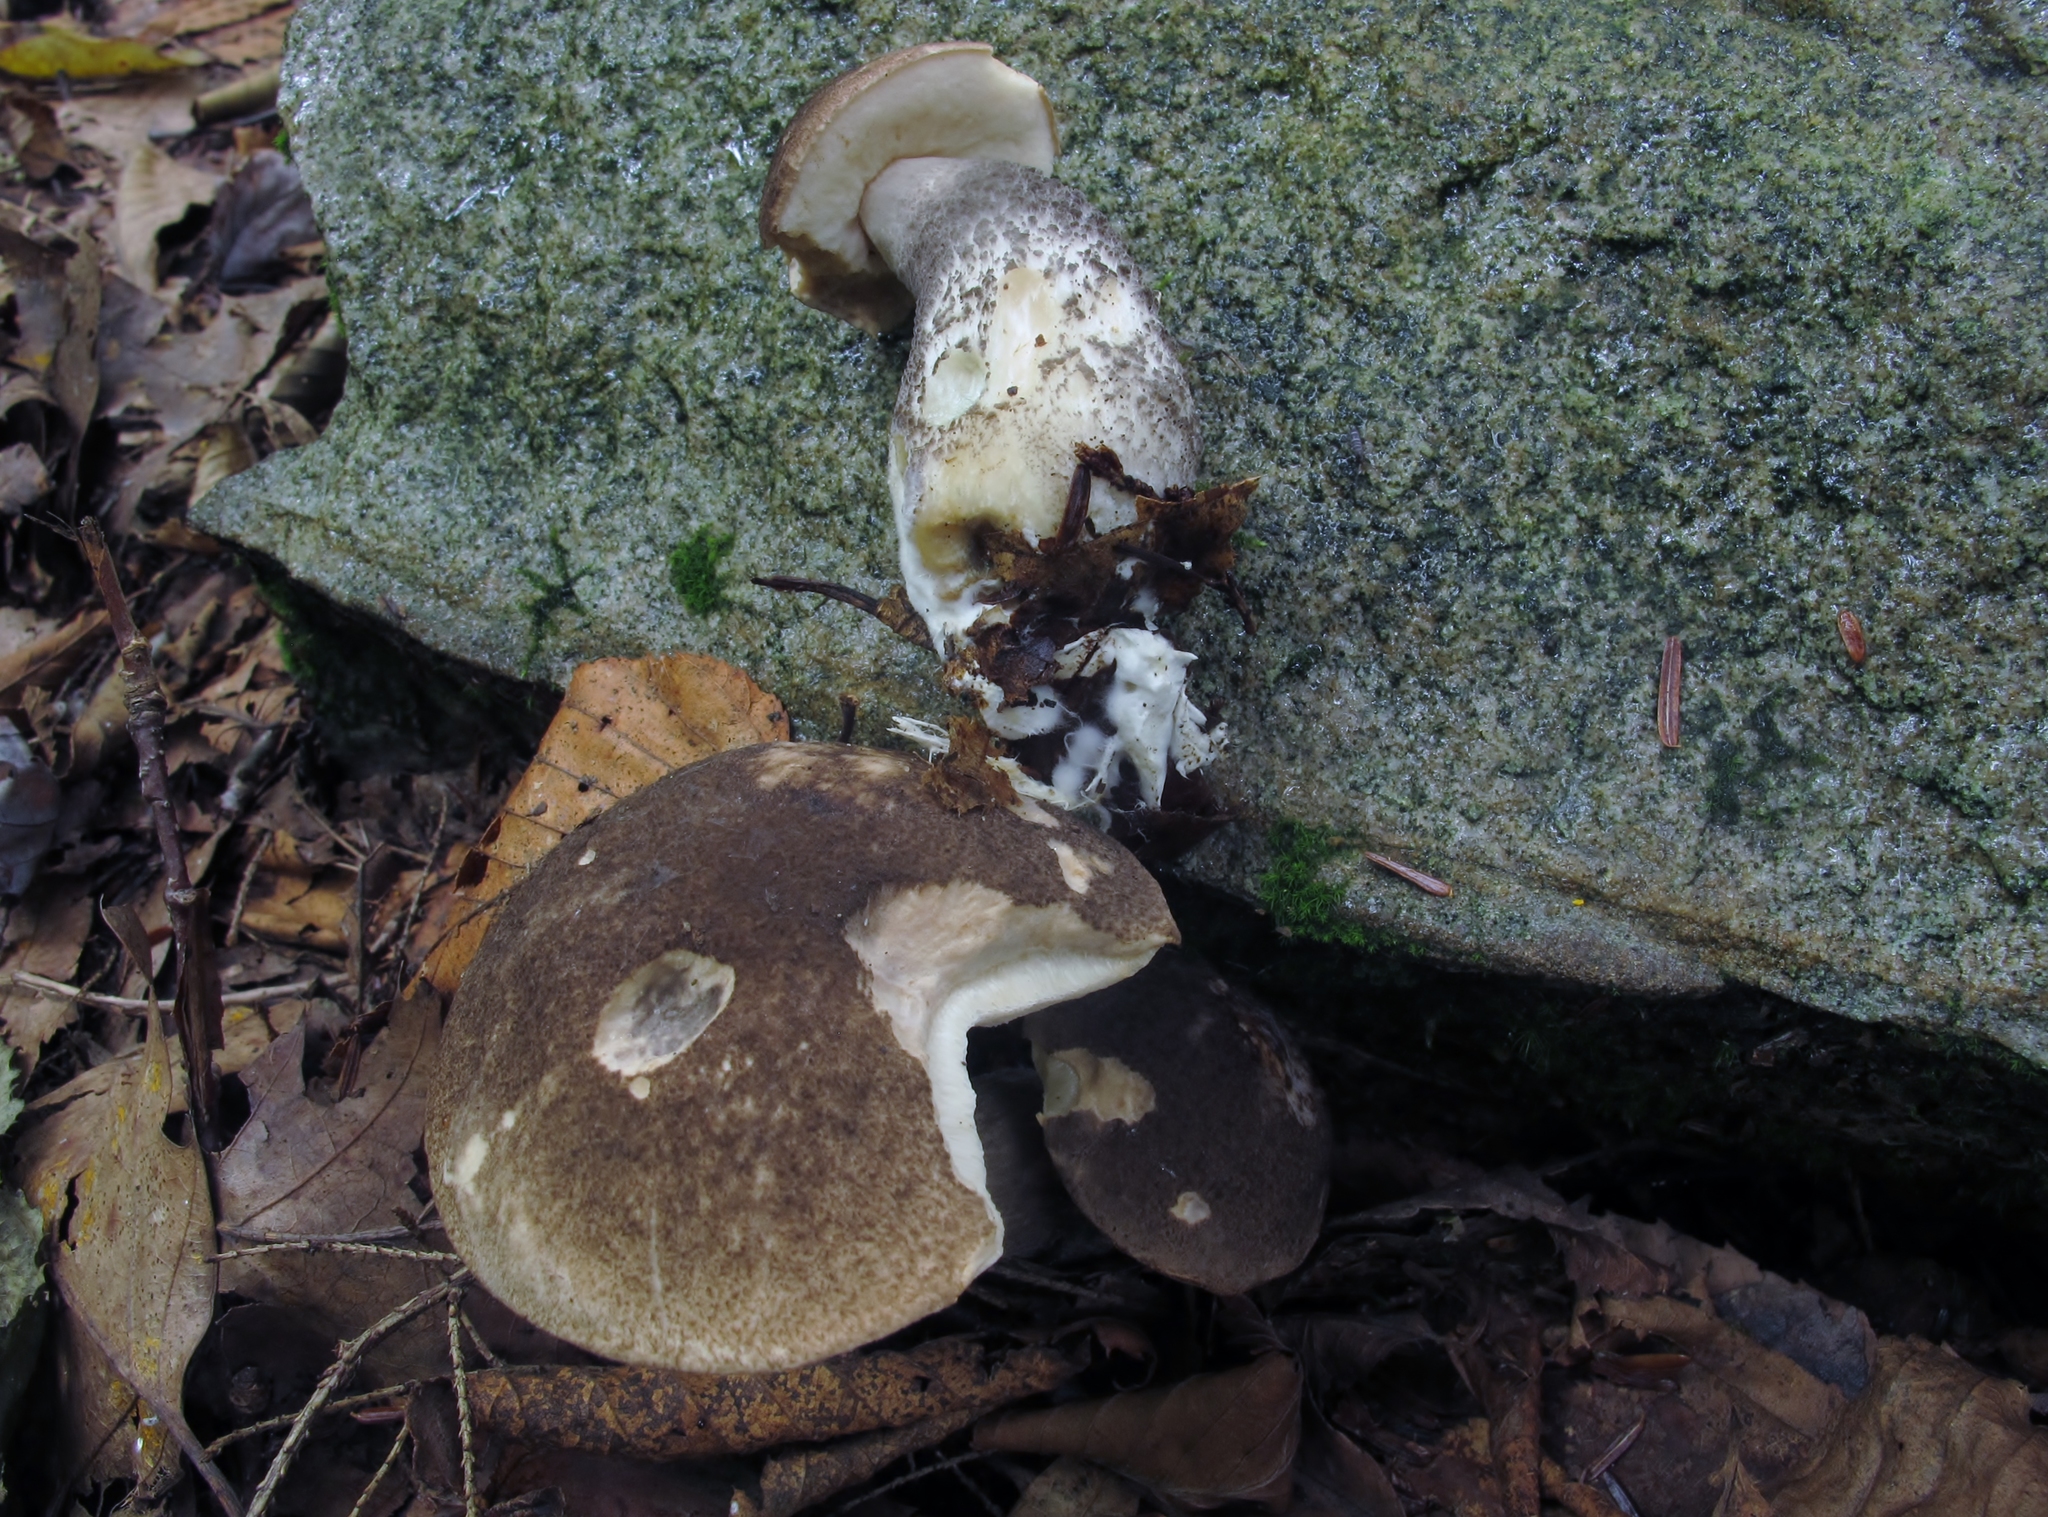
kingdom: Fungi
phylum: Basidiomycota
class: Agaricomycetes
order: Boletales
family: Boletaceae
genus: Leccinum
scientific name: Leccinum snellii
